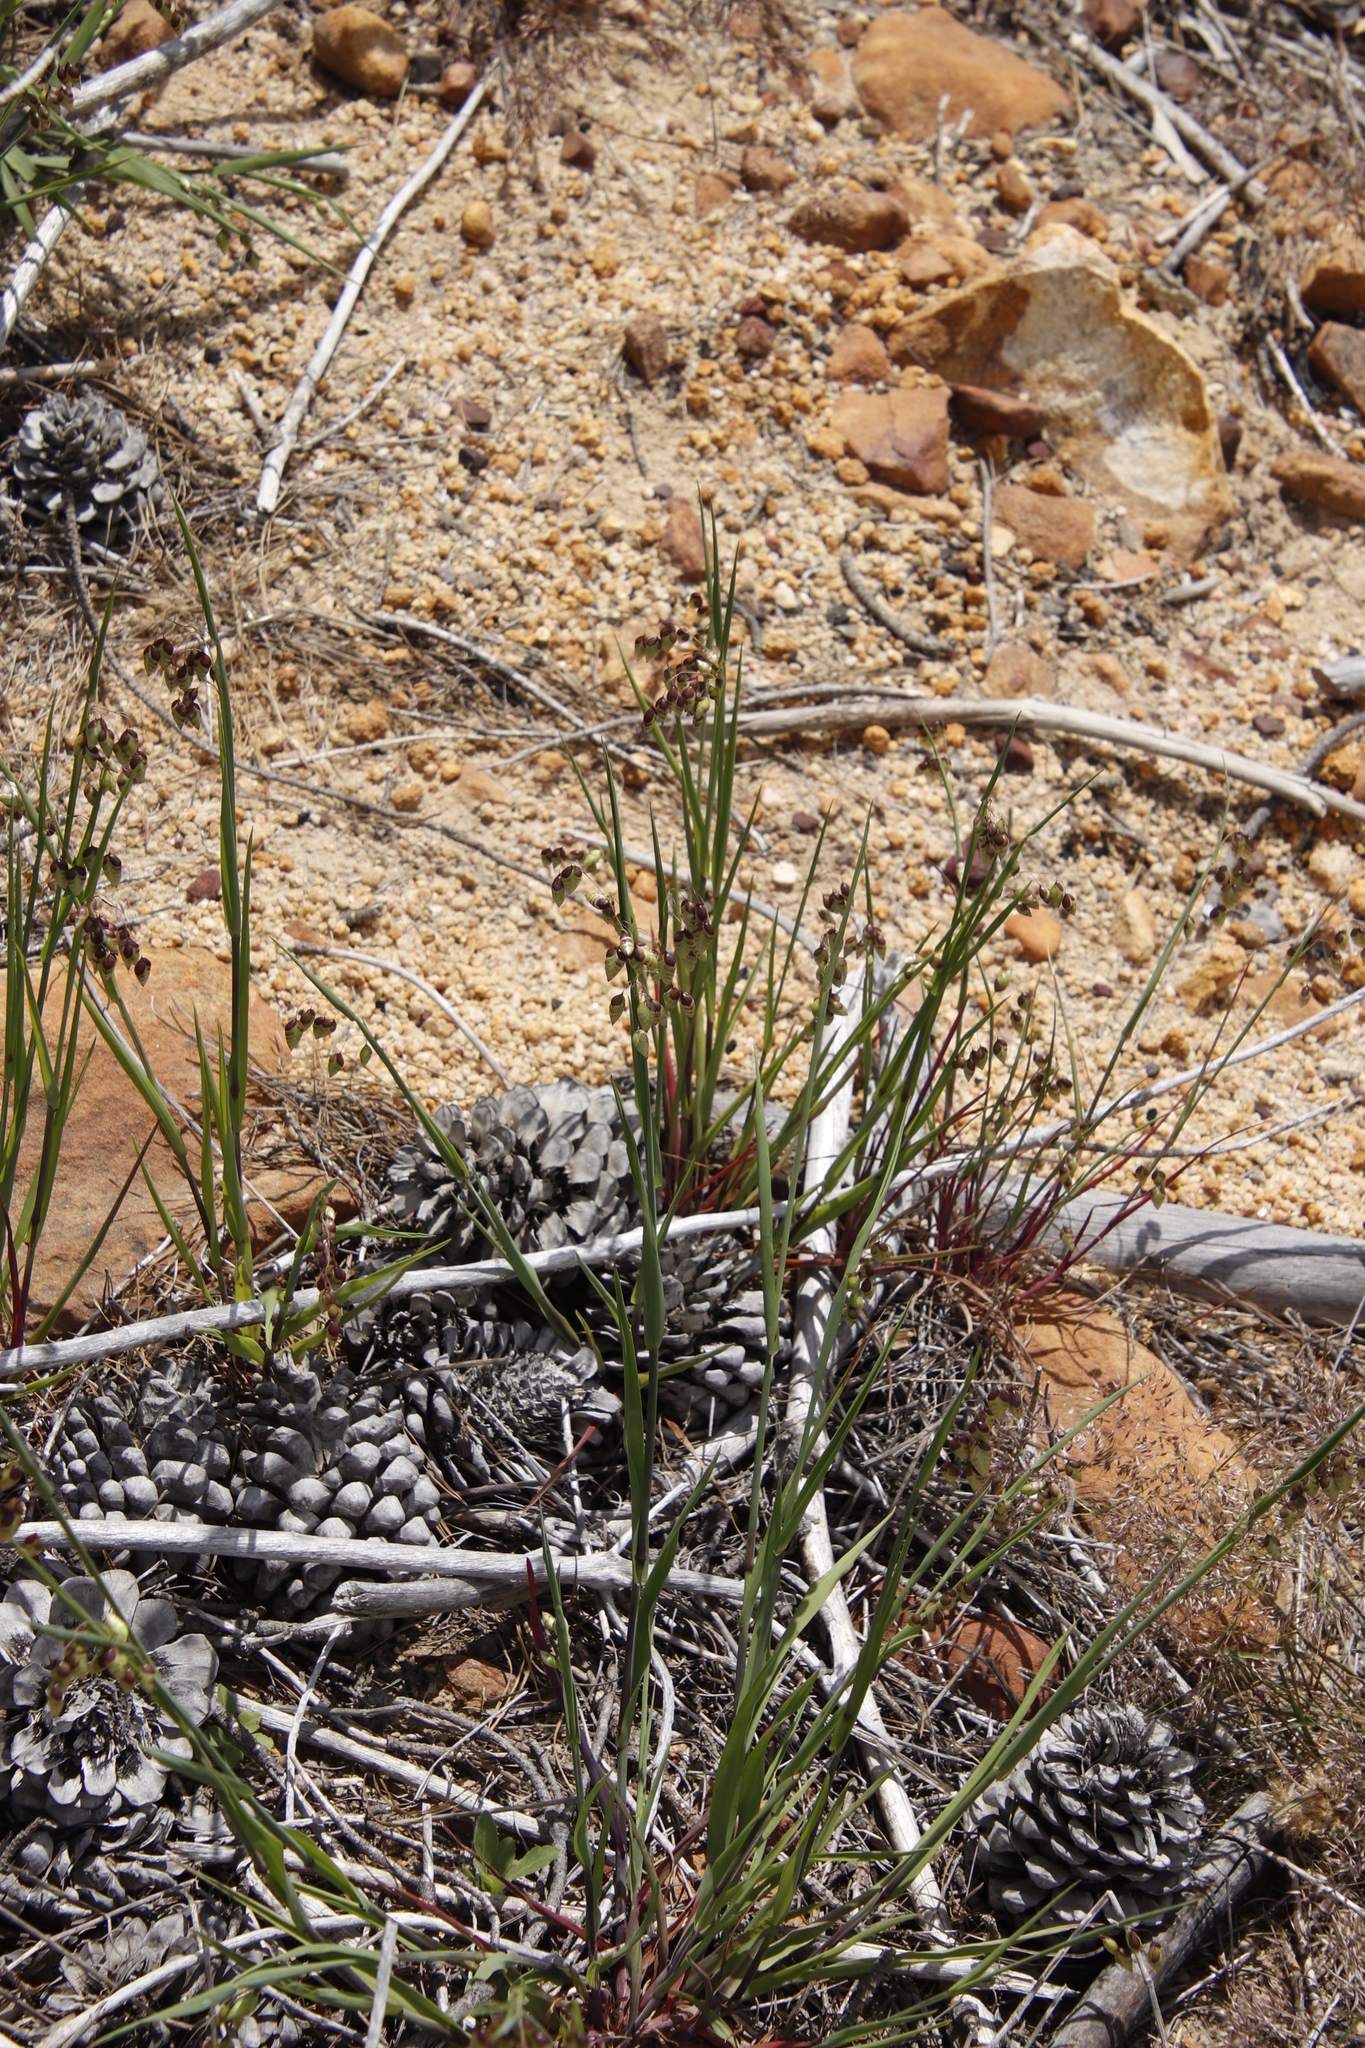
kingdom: Plantae
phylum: Tracheophyta
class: Liliopsida
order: Poales
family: Poaceae
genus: Briza
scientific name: Briza maxima
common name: Big quakinggrass
